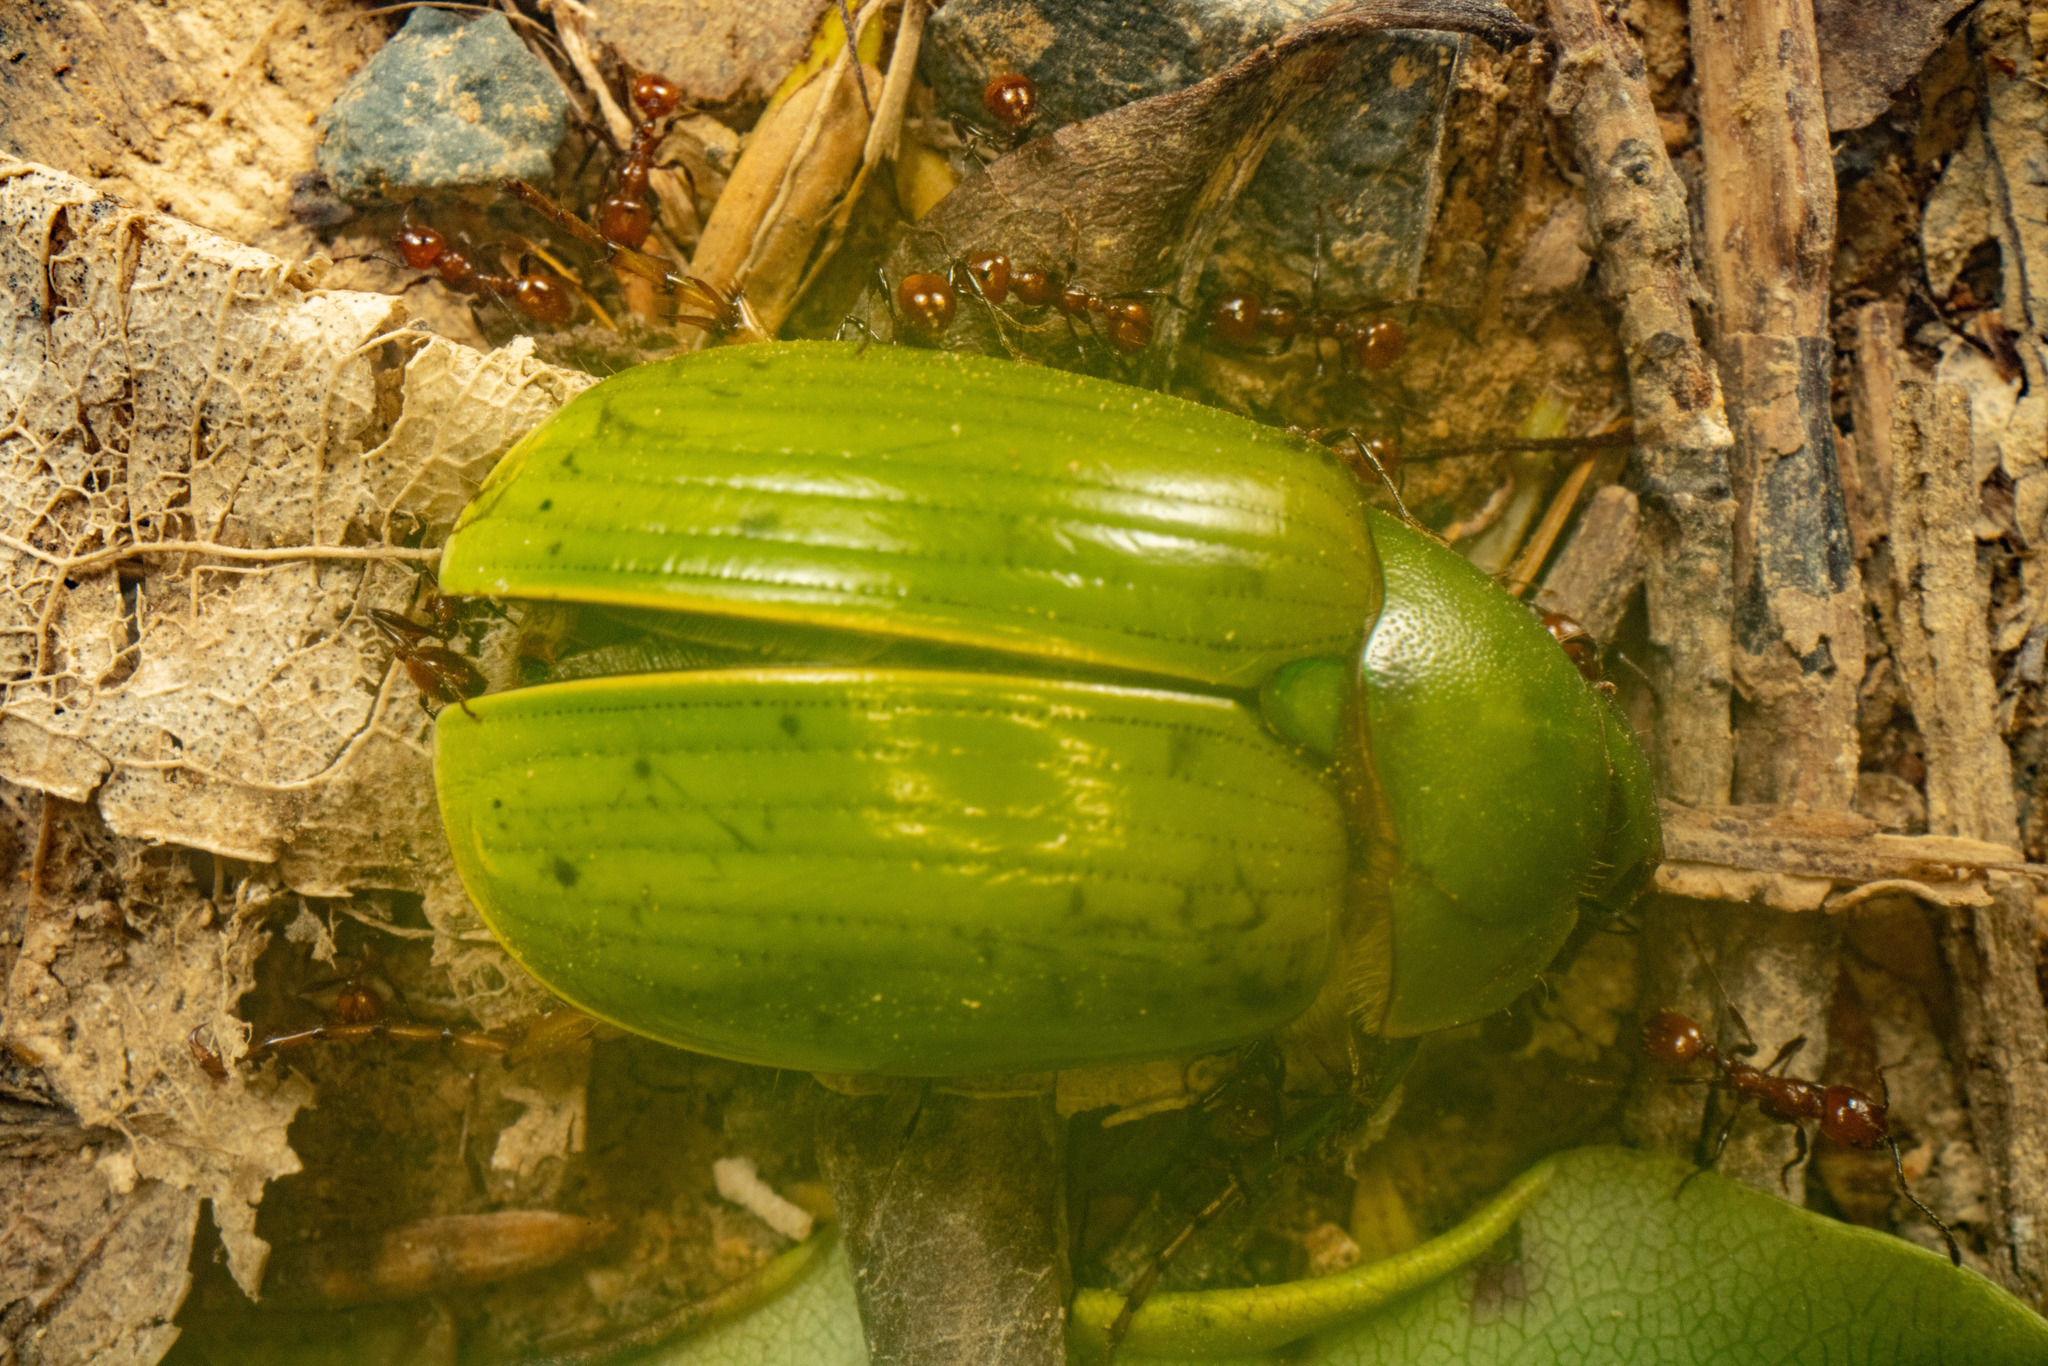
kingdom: Animalia
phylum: Arthropoda
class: Insecta
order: Coleoptera
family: Scarabaeidae
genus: Stethaspis
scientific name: Stethaspis longicornis
